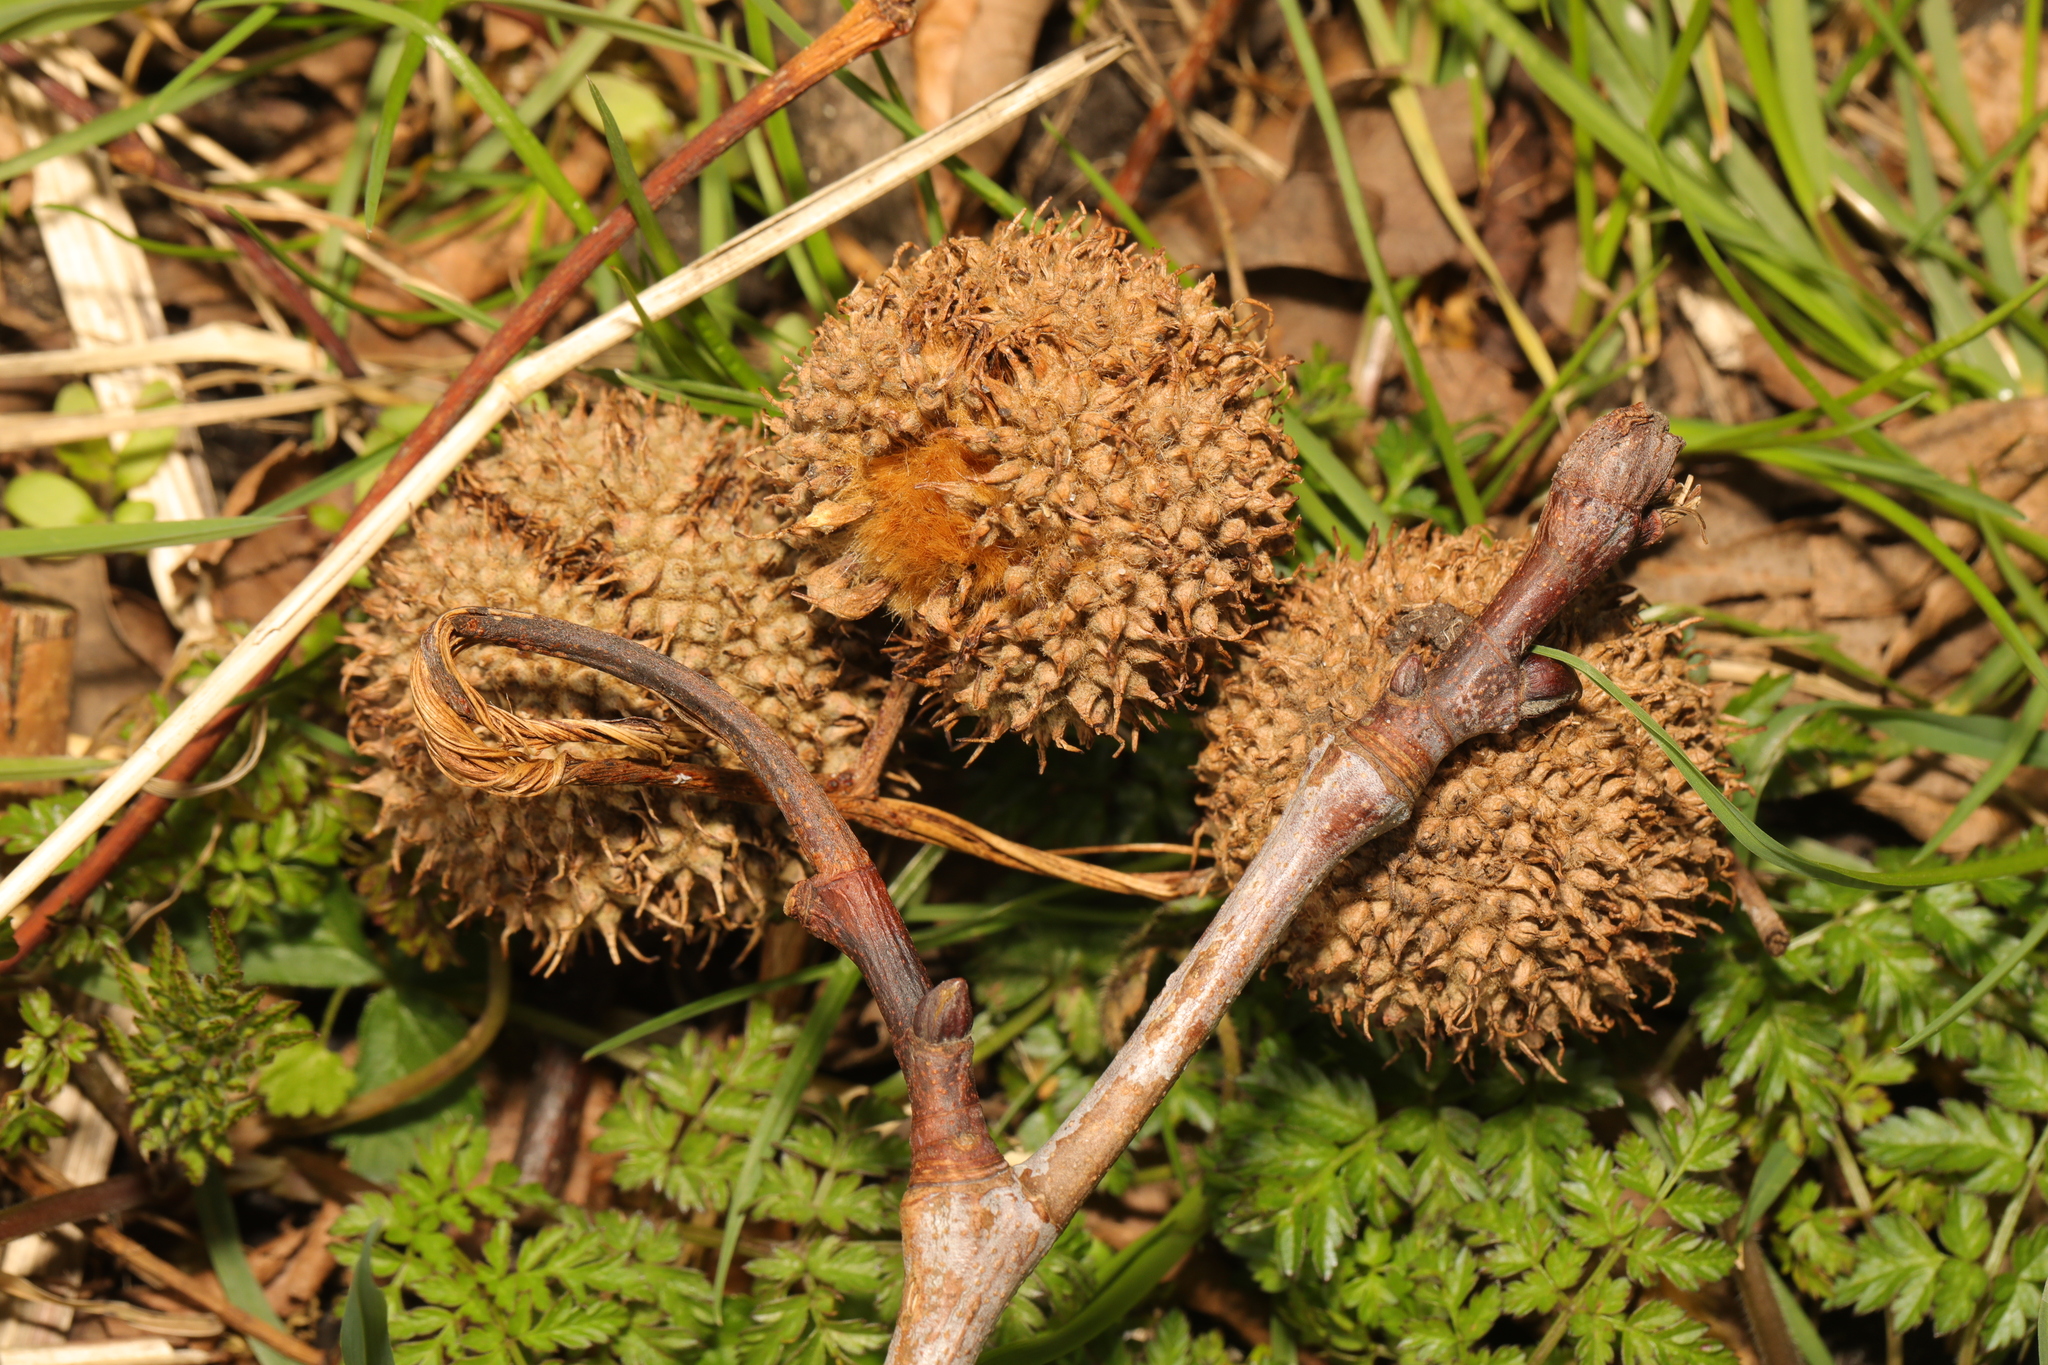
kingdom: Plantae
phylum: Tracheophyta
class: Magnoliopsida
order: Proteales
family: Platanaceae
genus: Platanus
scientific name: Platanus hispanica
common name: London plane
